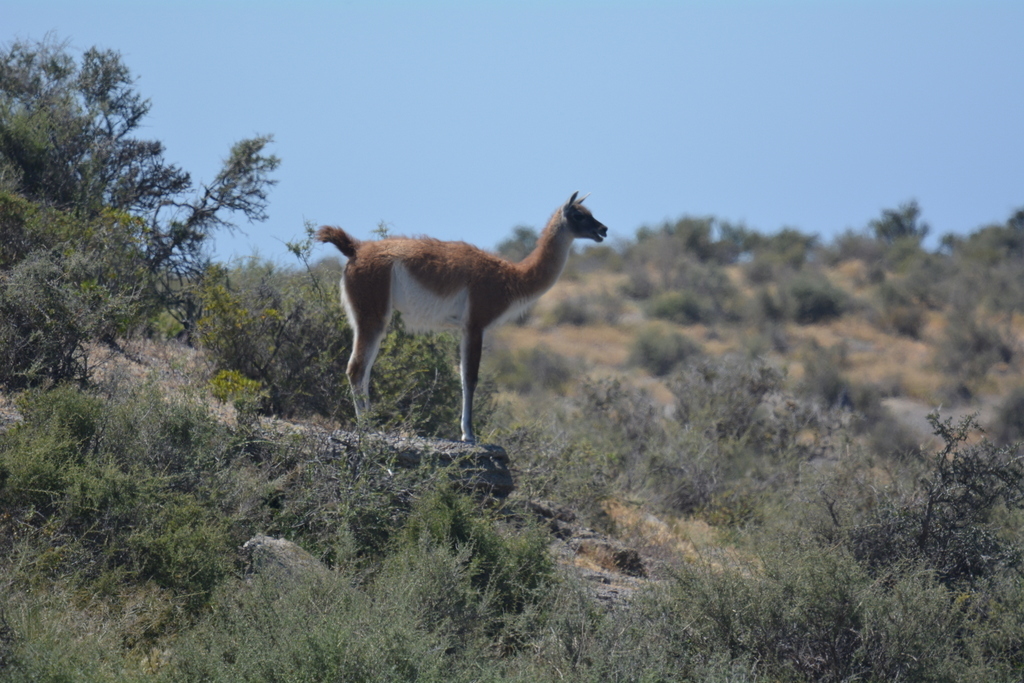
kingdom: Animalia
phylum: Chordata
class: Mammalia
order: Artiodactyla
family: Camelidae
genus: Lama
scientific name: Lama glama
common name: Llama
